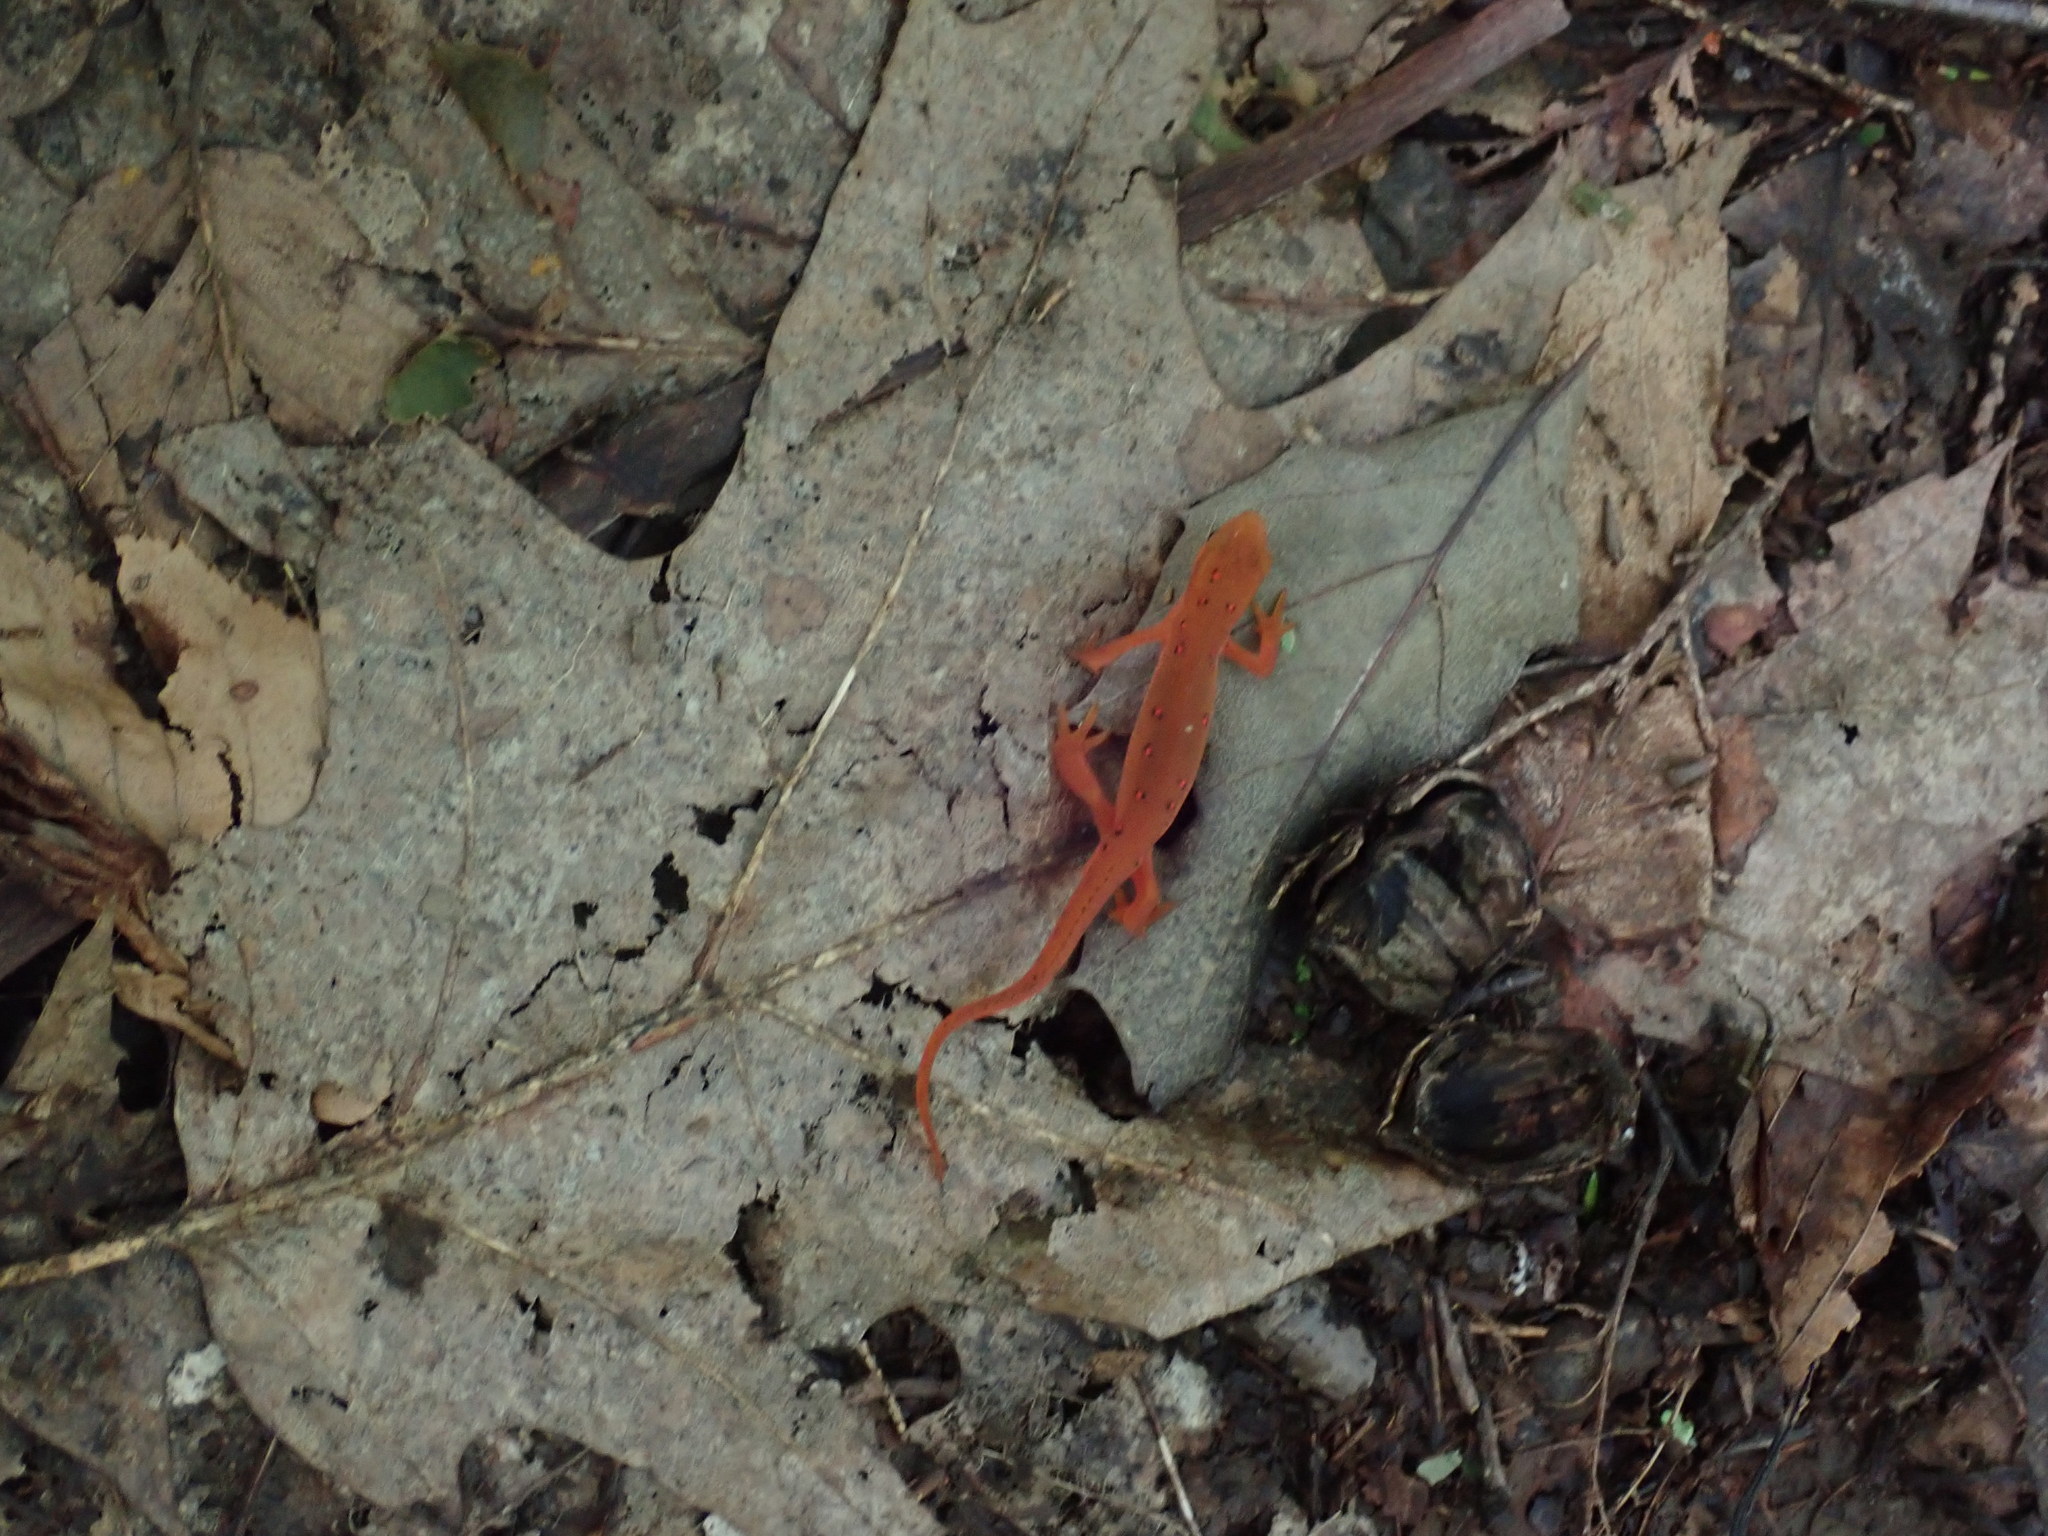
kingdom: Animalia
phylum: Chordata
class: Amphibia
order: Caudata
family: Salamandridae
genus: Notophthalmus
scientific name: Notophthalmus viridescens
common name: Eastern newt
